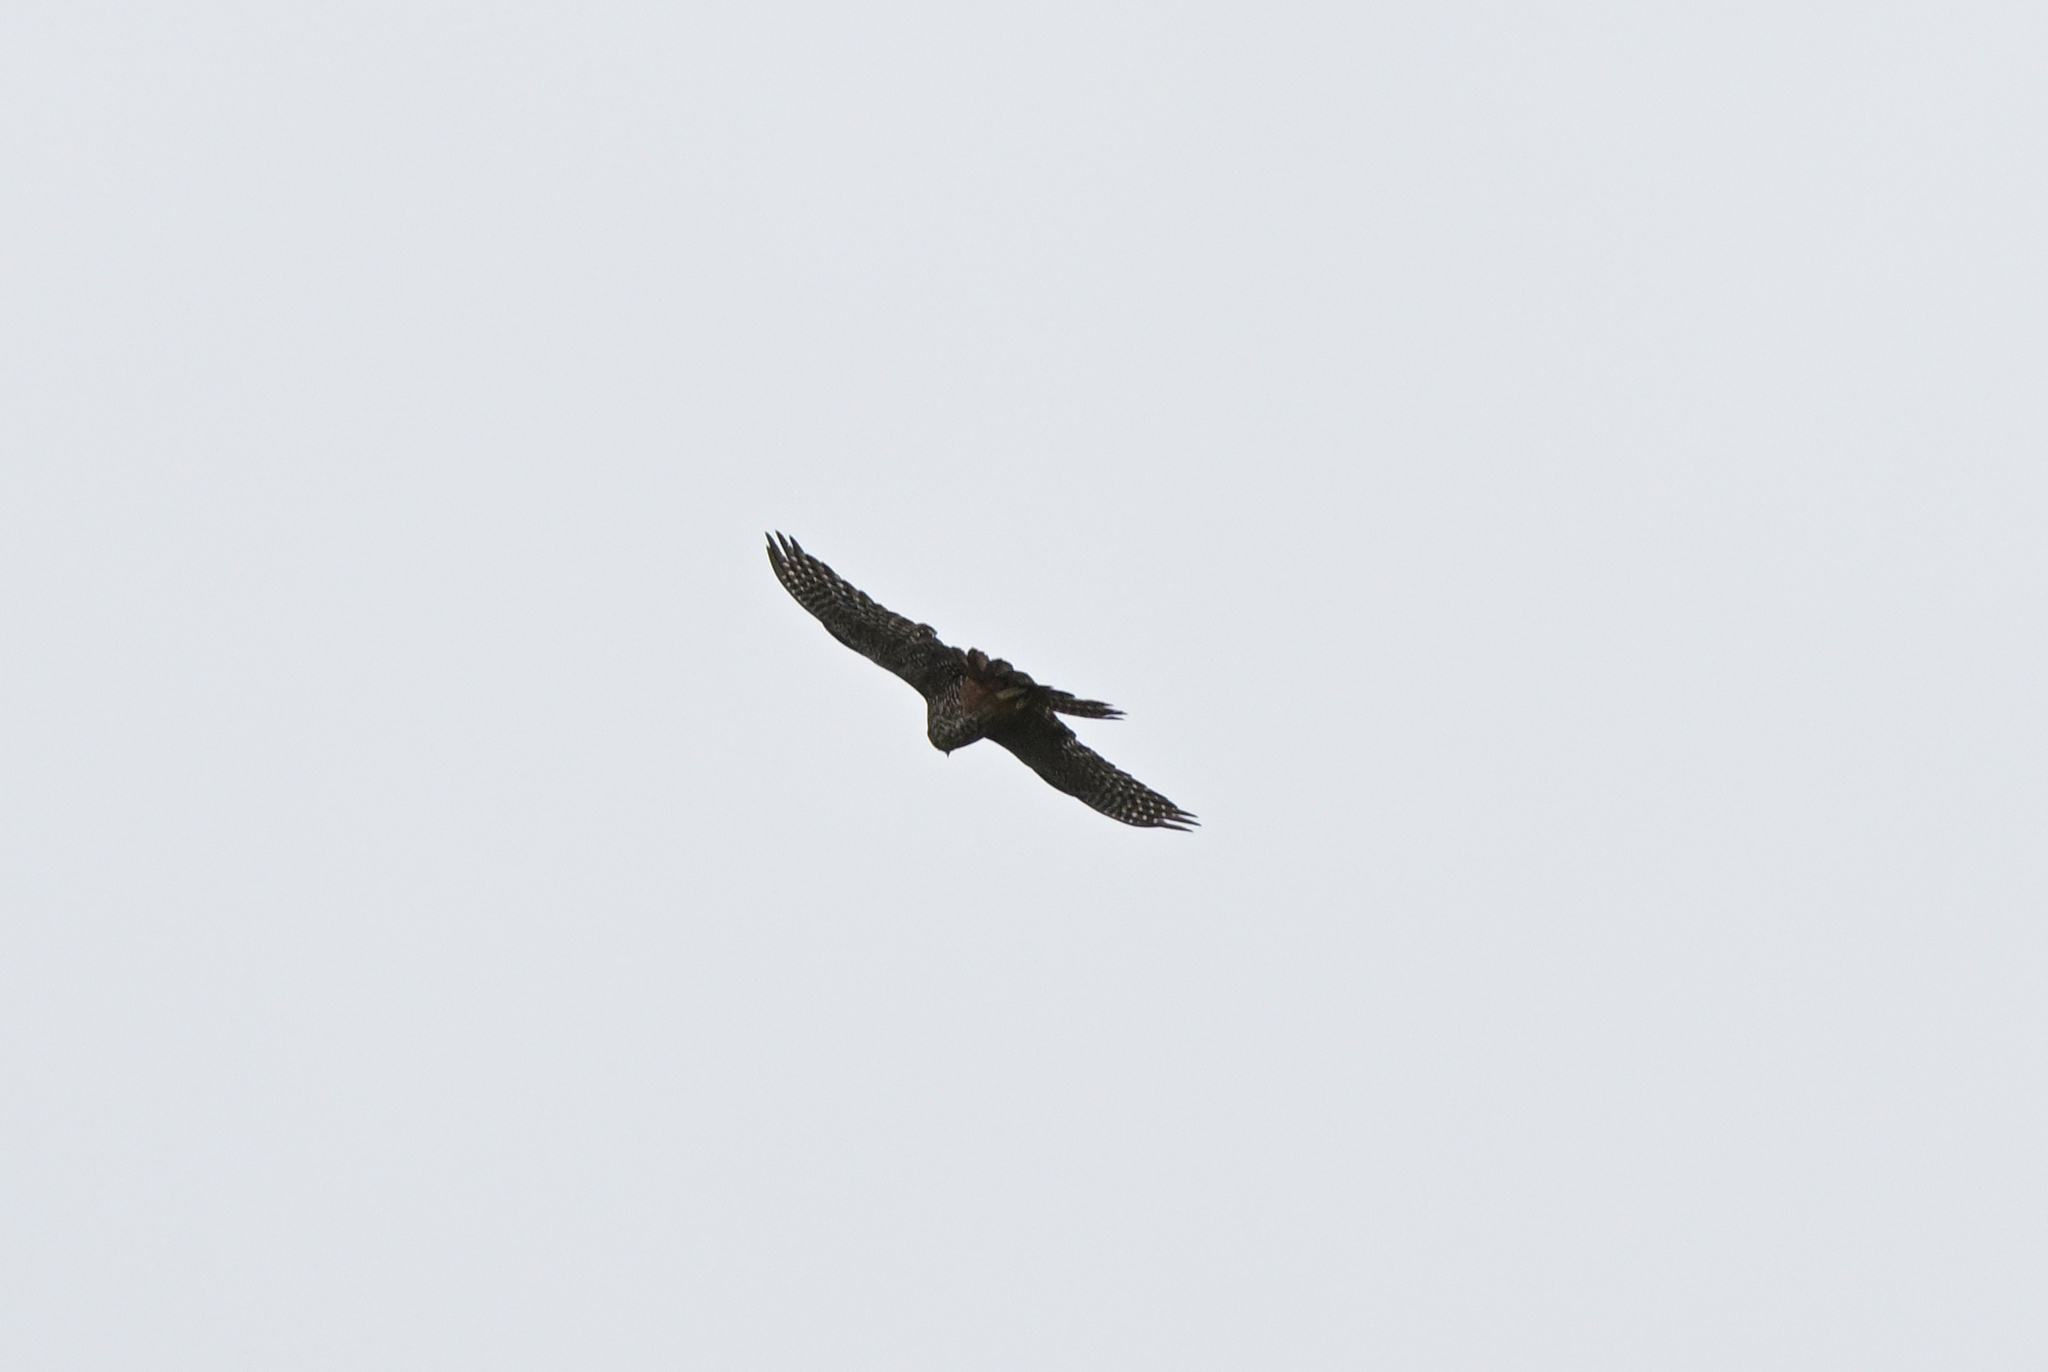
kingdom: Animalia
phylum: Chordata
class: Aves
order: Falconiformes
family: Falconidae
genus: Falco
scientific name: Falco novaeseelandiae
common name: New zealand falcon
